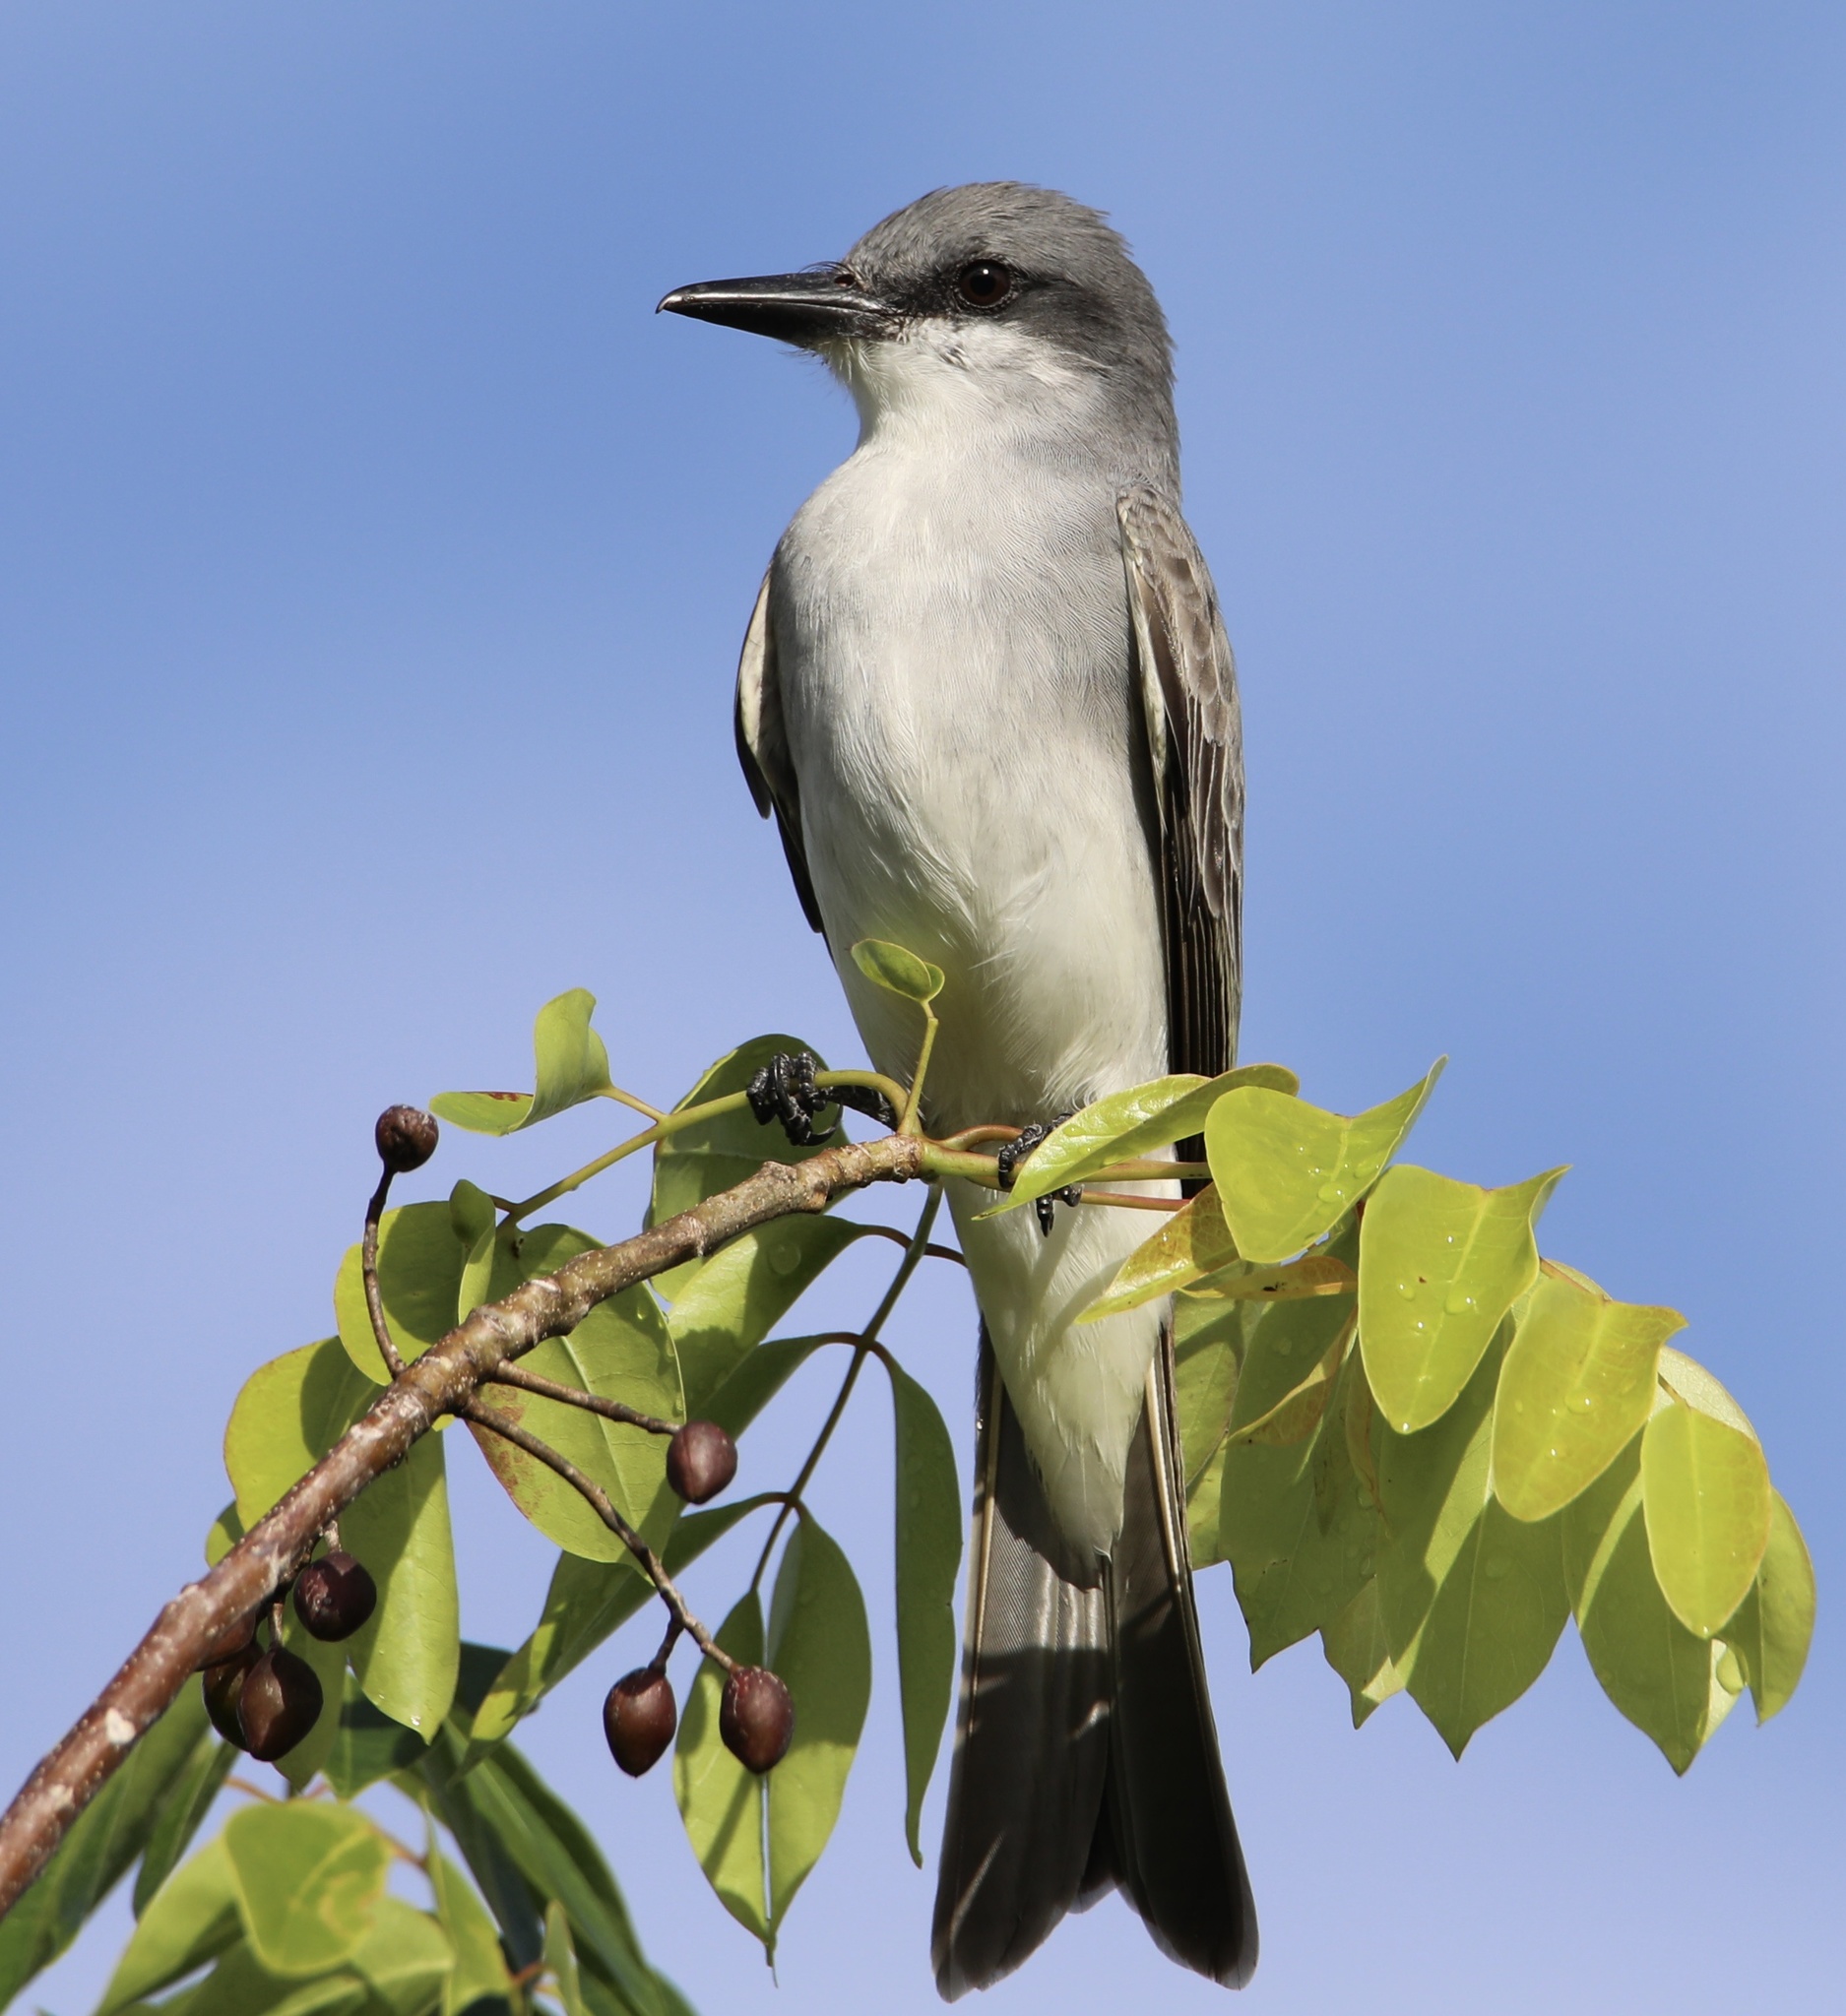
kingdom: Animalia
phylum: Chordata
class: Aves
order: Passeriformes
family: Tyrannidae
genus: Tyrannus
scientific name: Tyrannus dominicensis
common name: Gray kingbird
